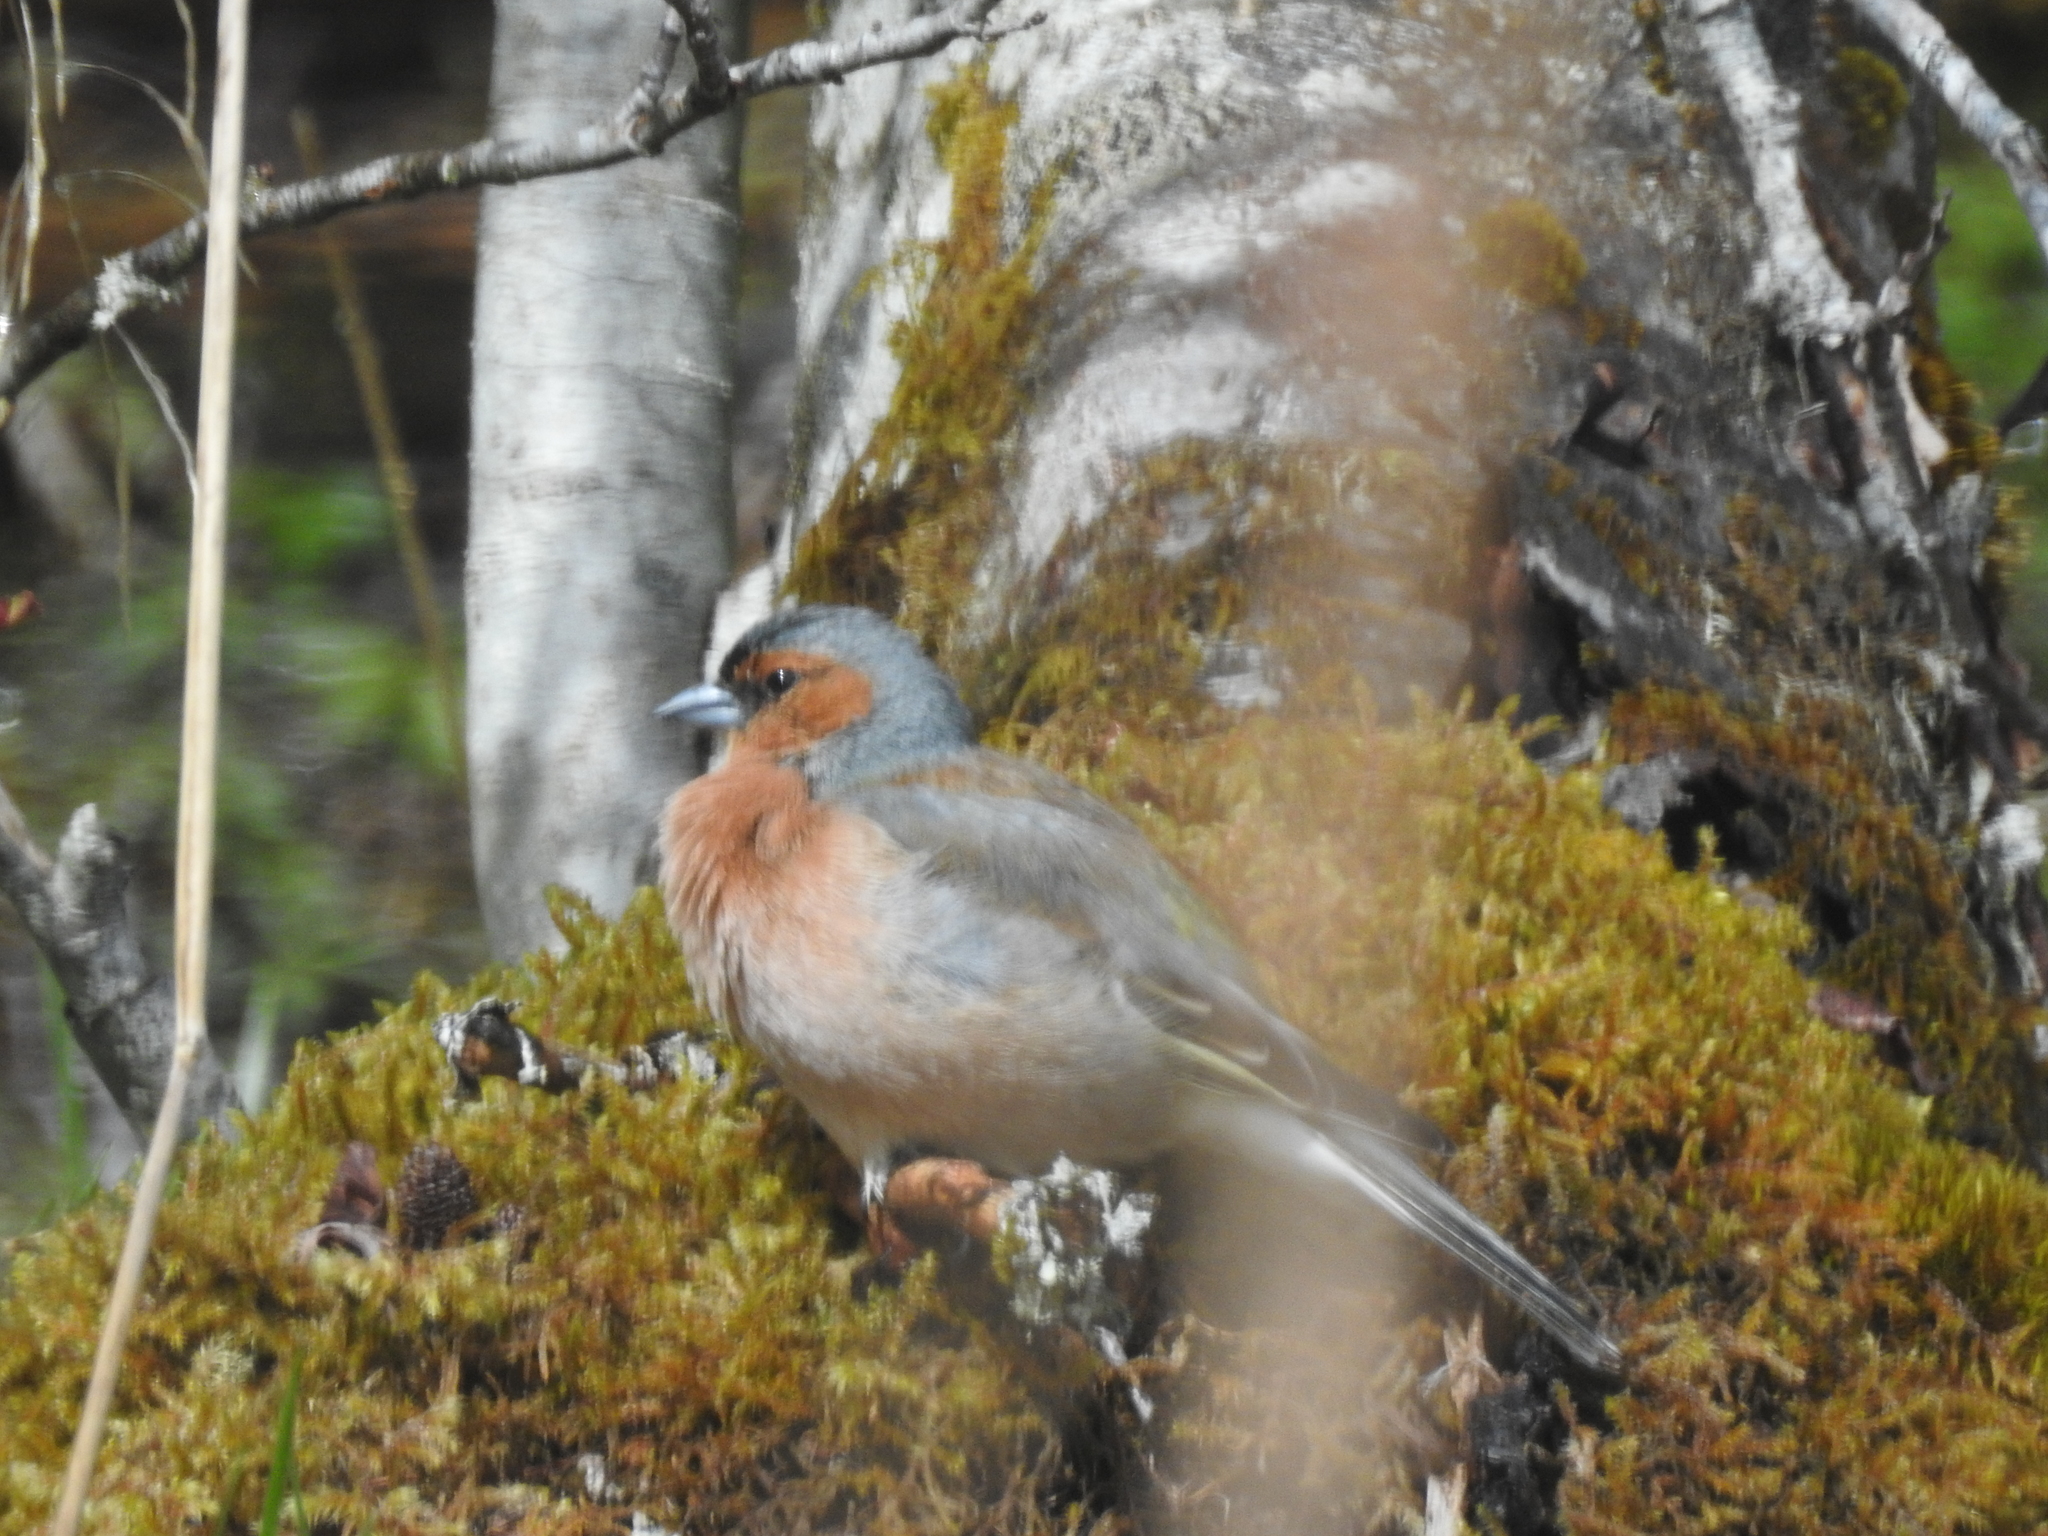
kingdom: Animalia
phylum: Chordata
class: Aves
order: Passeriformes
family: Fringillidae
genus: Fringilla
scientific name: Fringilla coelebs
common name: Common chaffinch
